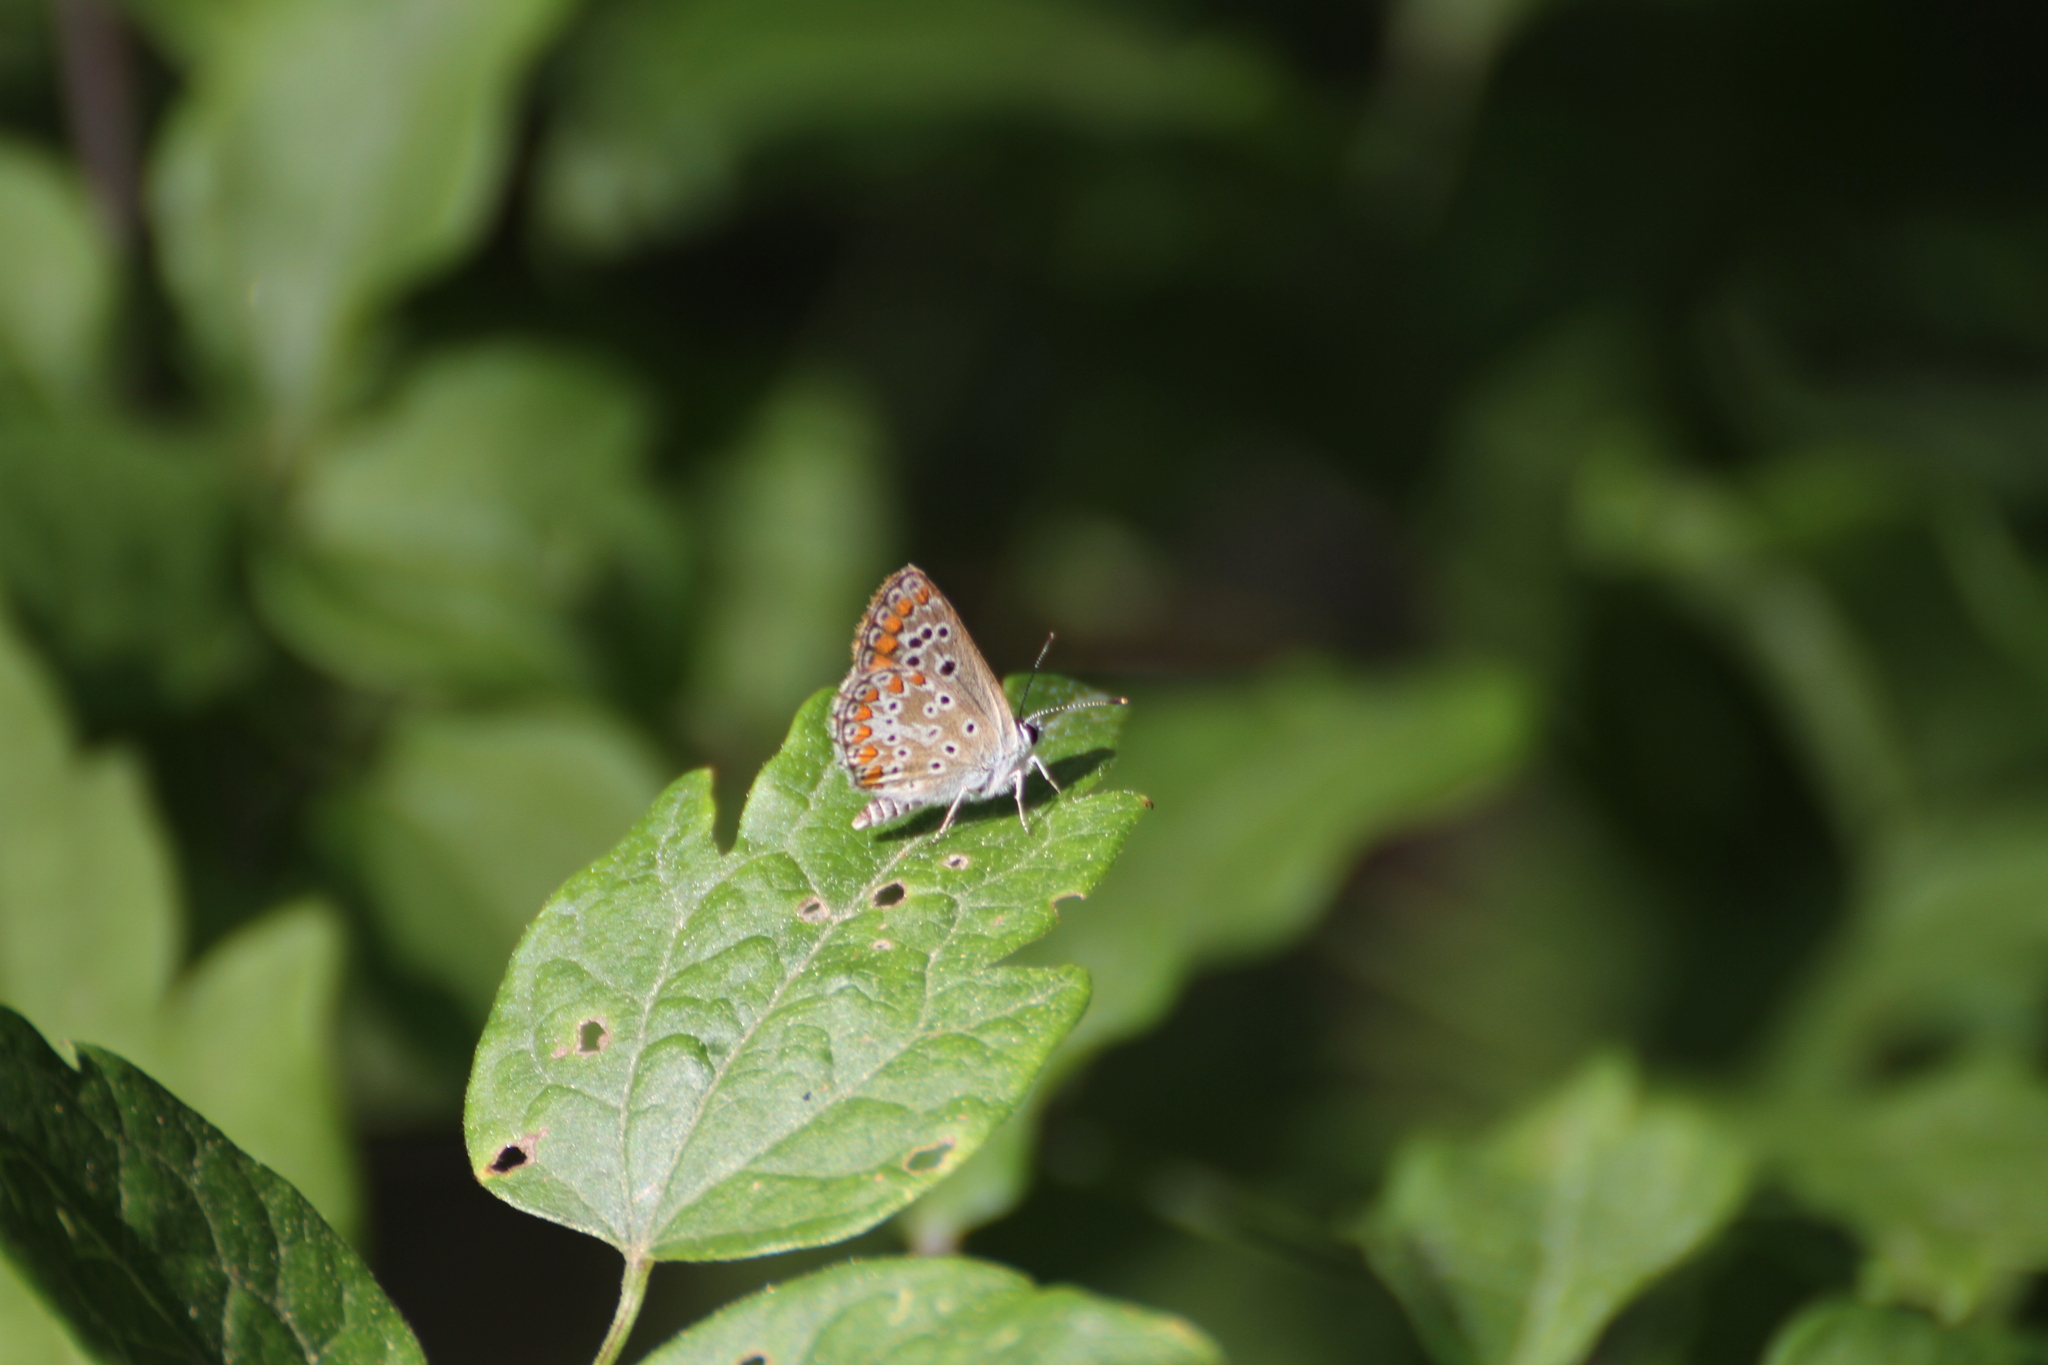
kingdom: Animalia
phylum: Arthropoda
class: Insecta
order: Lepidoptera
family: Lycaenidae
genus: Aricia
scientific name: Aricia agestis
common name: Brown argus
